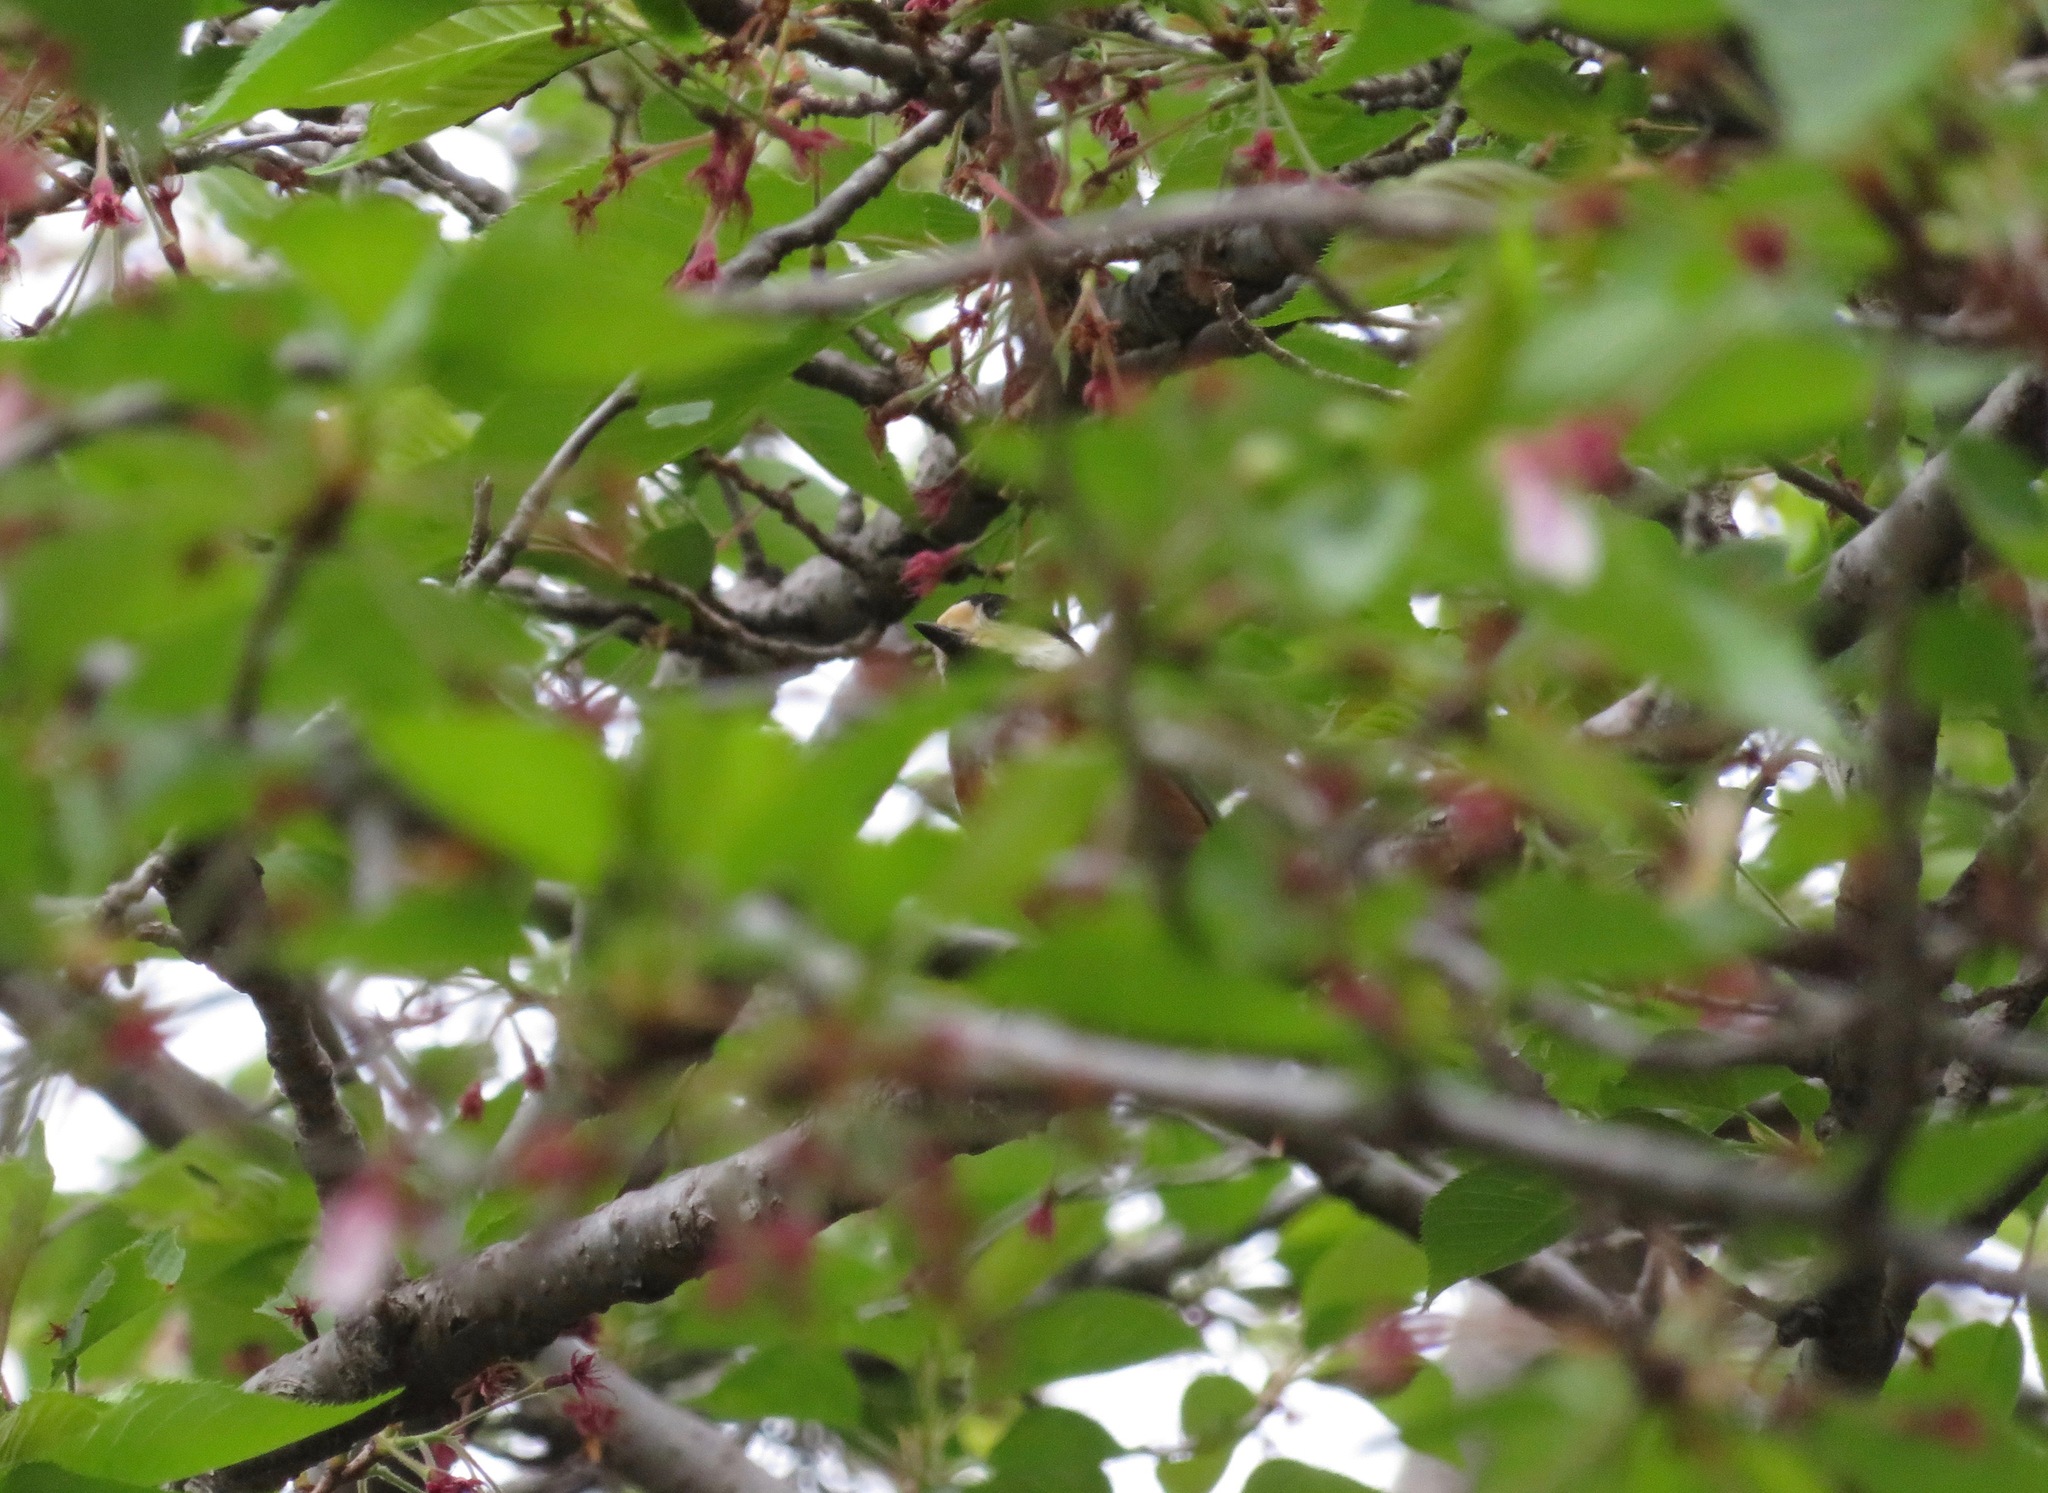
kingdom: Animalia
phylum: Chordata
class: Aves
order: Passeriformes
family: Paridae
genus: Poecile
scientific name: Poecile varius
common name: Varied tit
